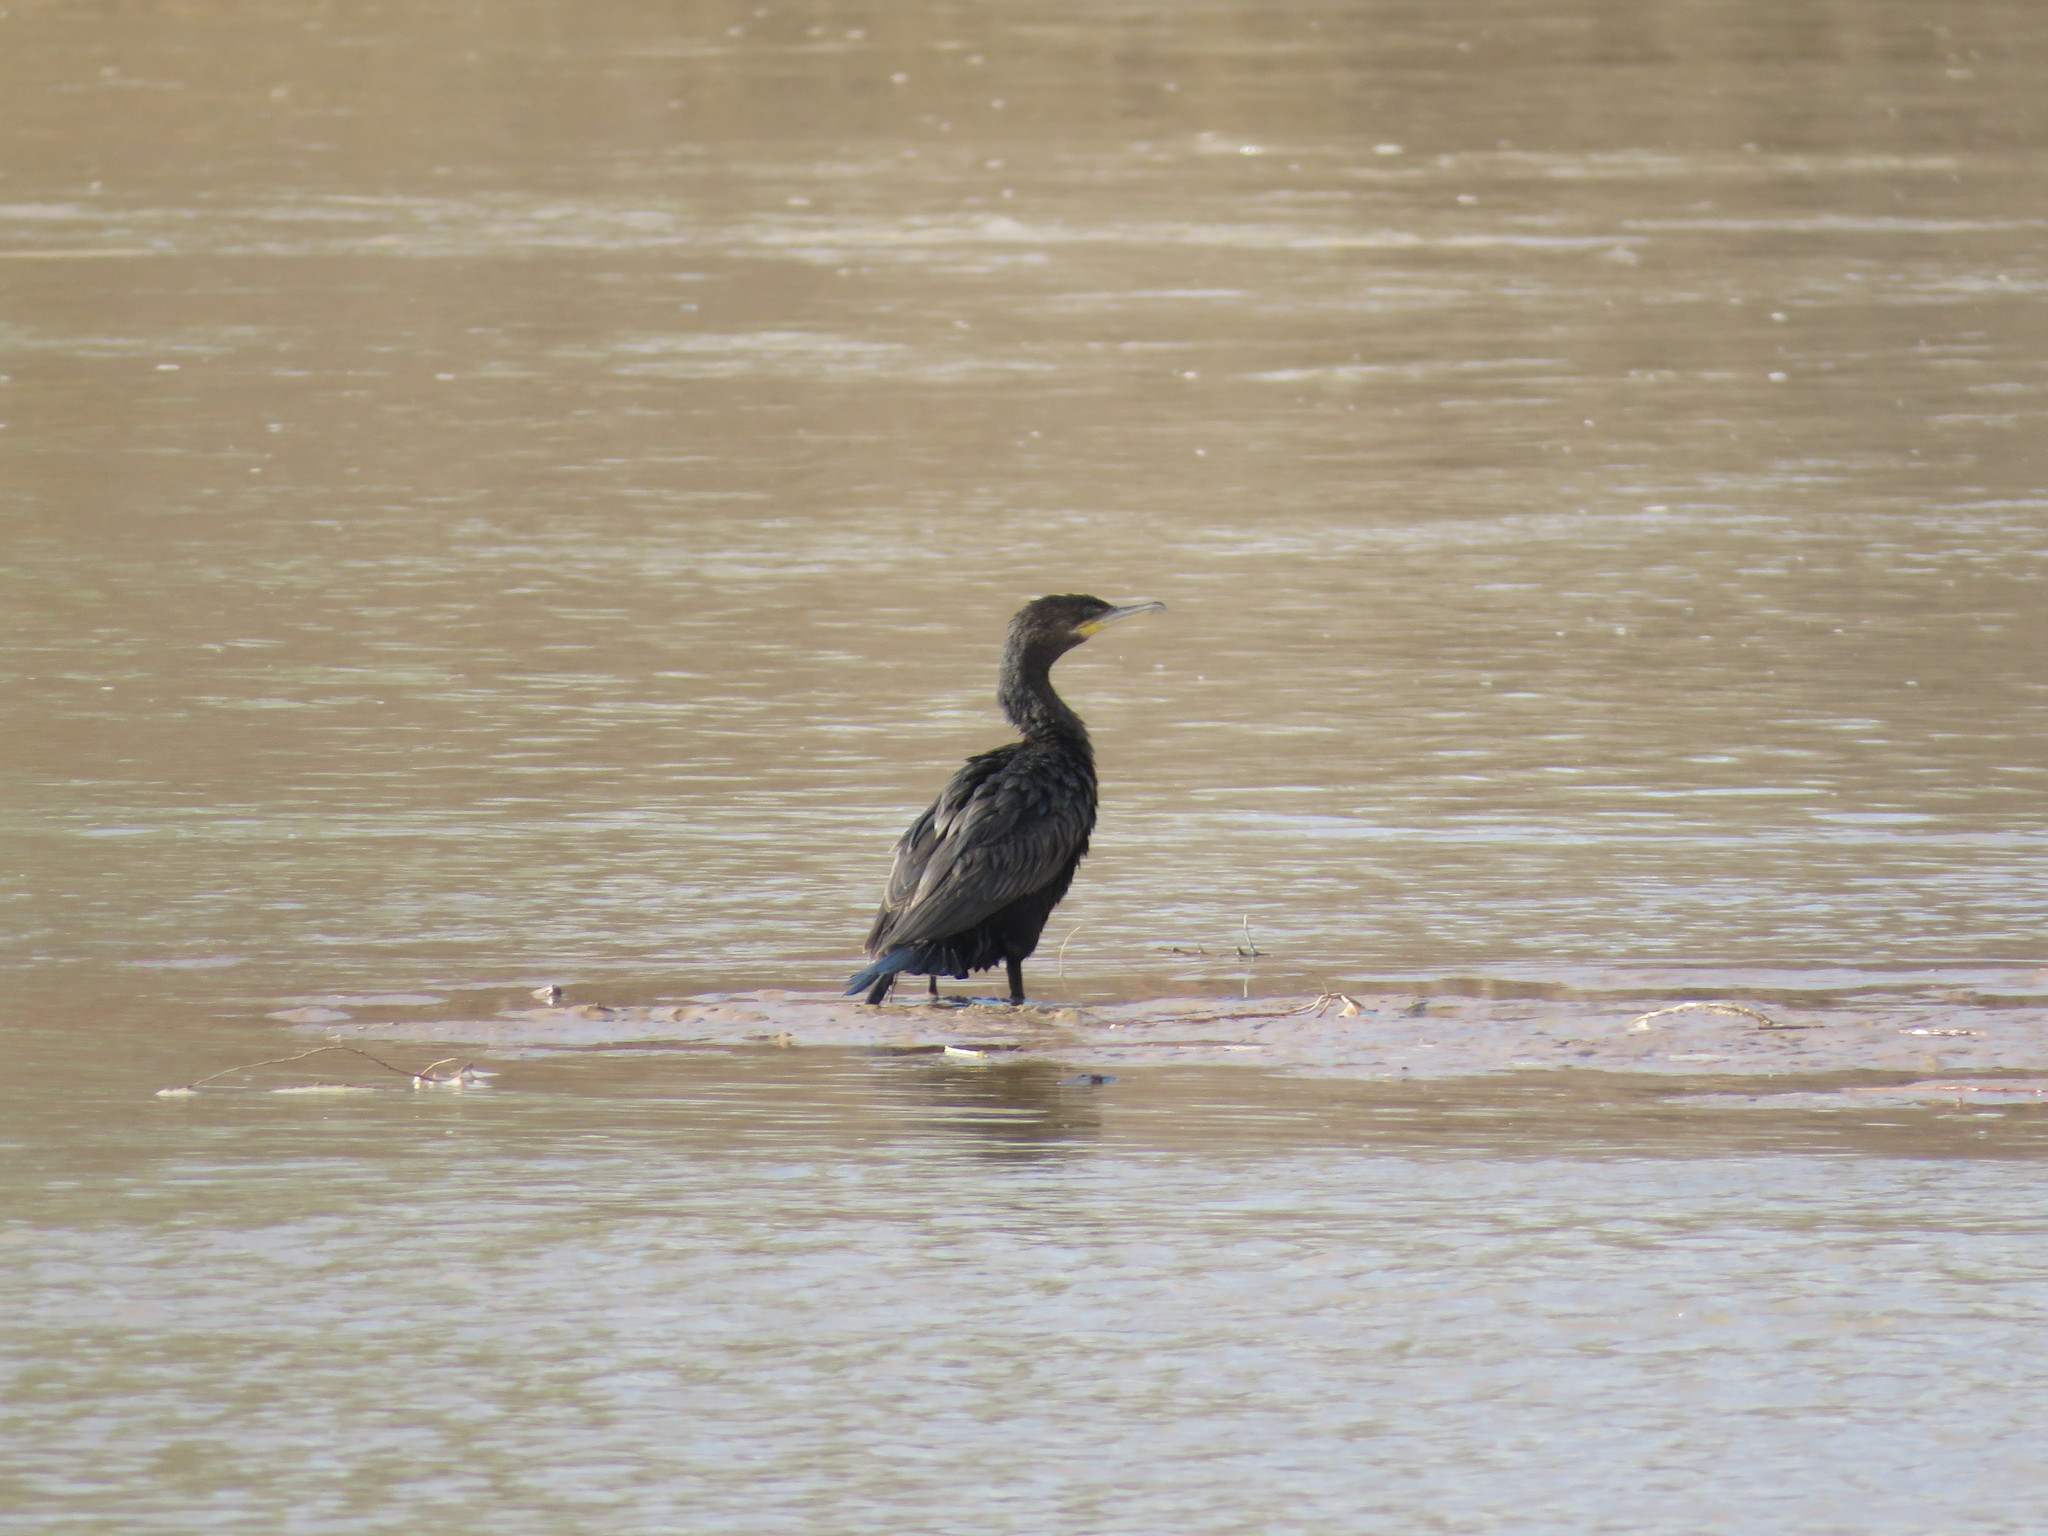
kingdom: Animalia
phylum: Chordata
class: Aves
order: Suliformes
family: Phalacrocoracidae
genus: Phalacrocorax
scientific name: Phalacrocorax brasilianus
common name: Neotropic cormorant
